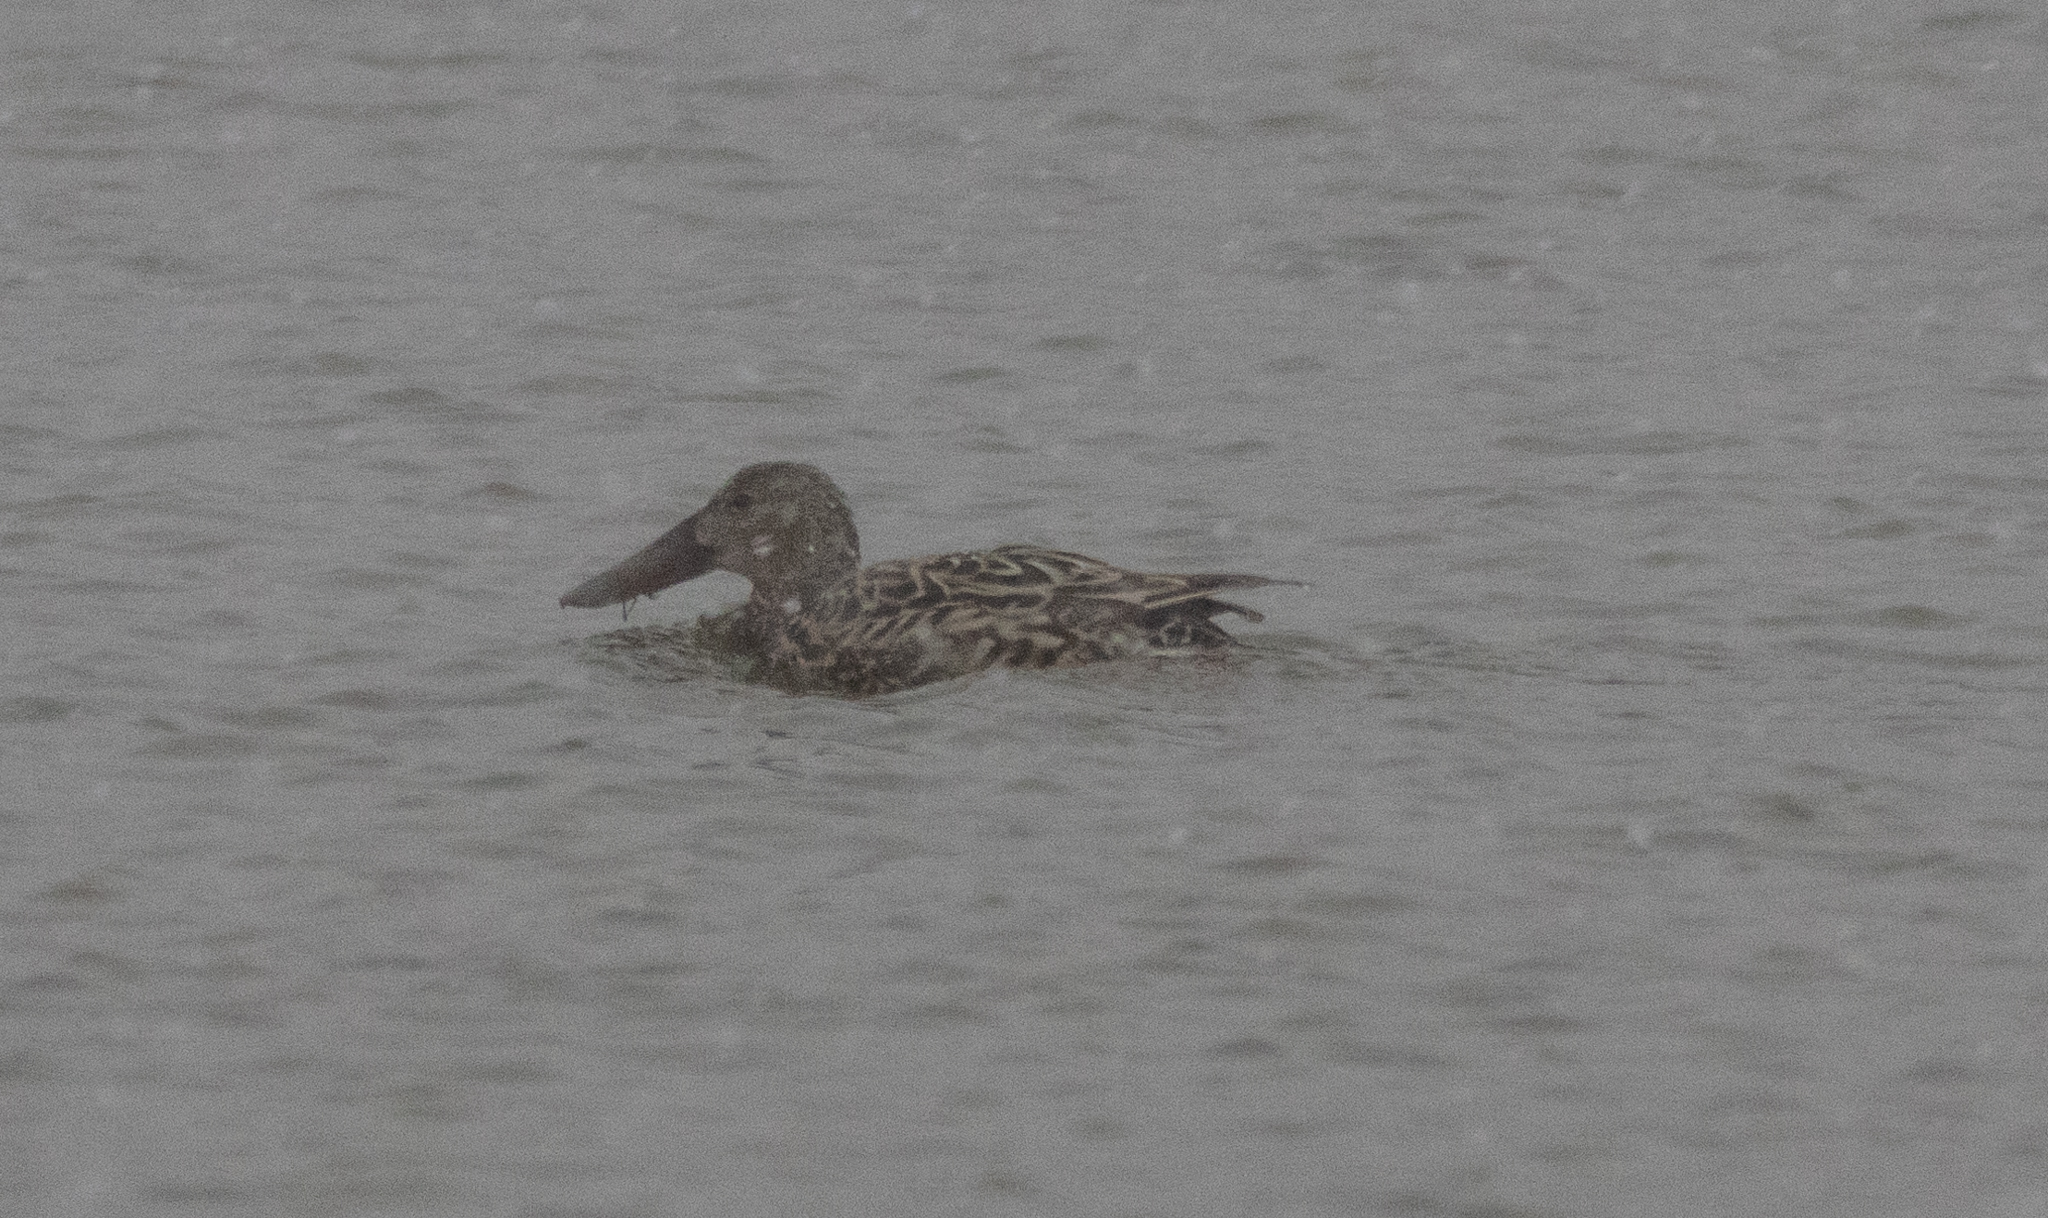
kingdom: Animalia
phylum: Chordata
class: Aves
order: Anseriformes
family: Anatidae
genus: Spatula
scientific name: Spatula clypeata
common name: Northern shoveler
